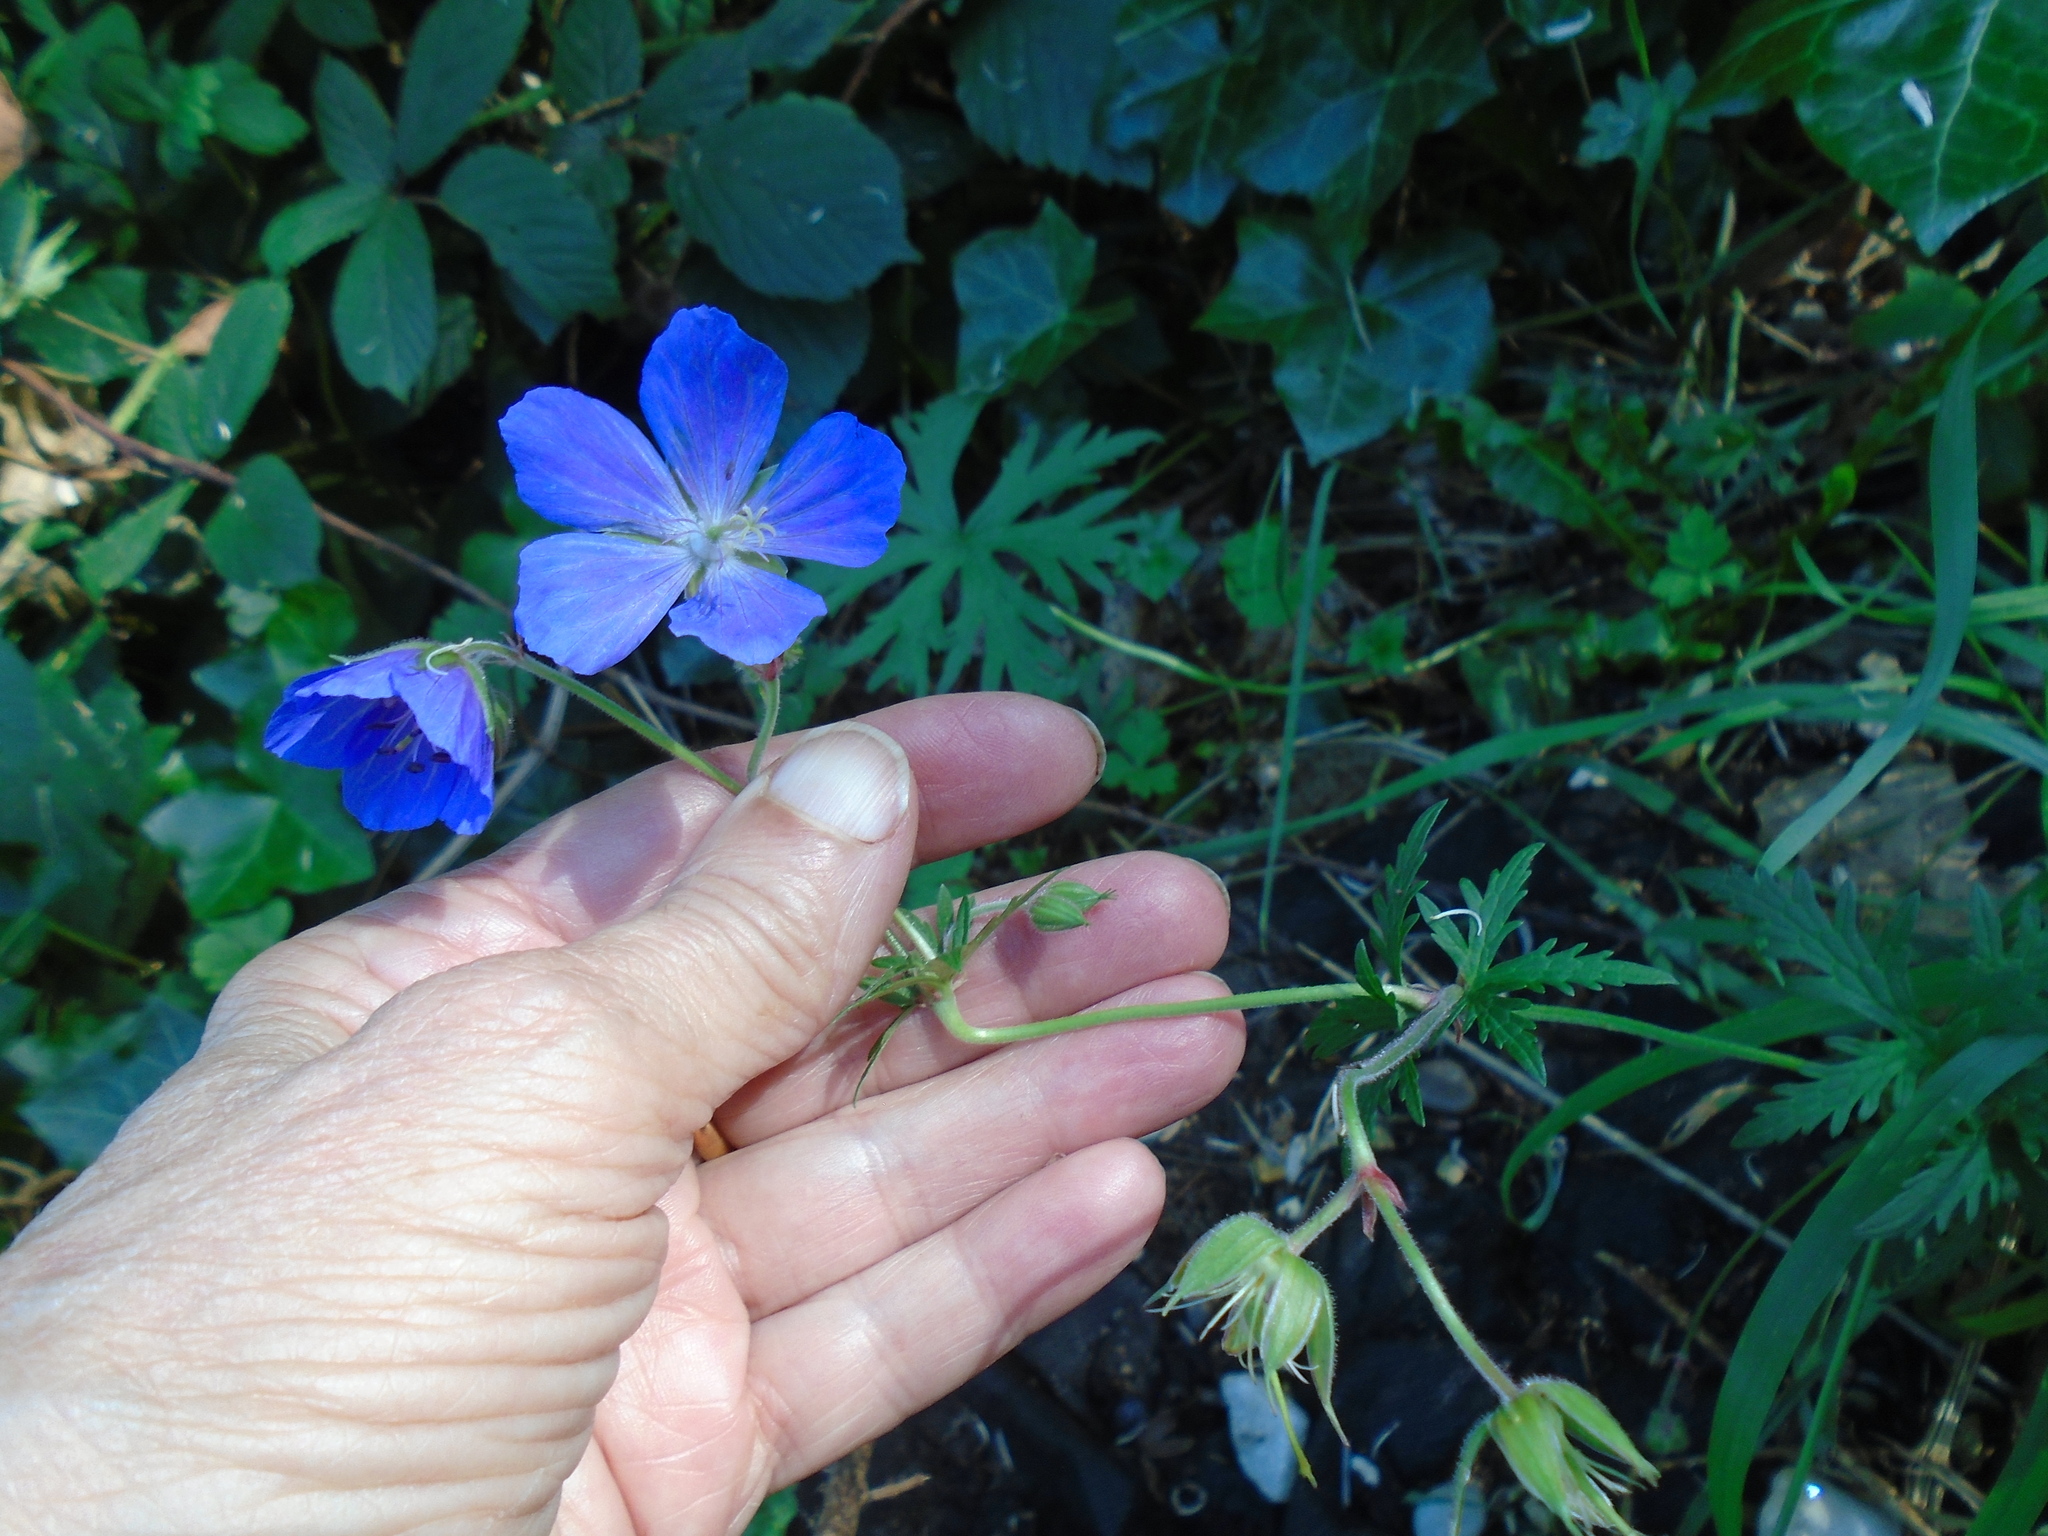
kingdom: Plantae
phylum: Tracheophyta
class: Magnoliopsida
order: Geraniales
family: Geraniaceae
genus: Geranium
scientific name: Geranium pratense
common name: Meadow crane's-bill
